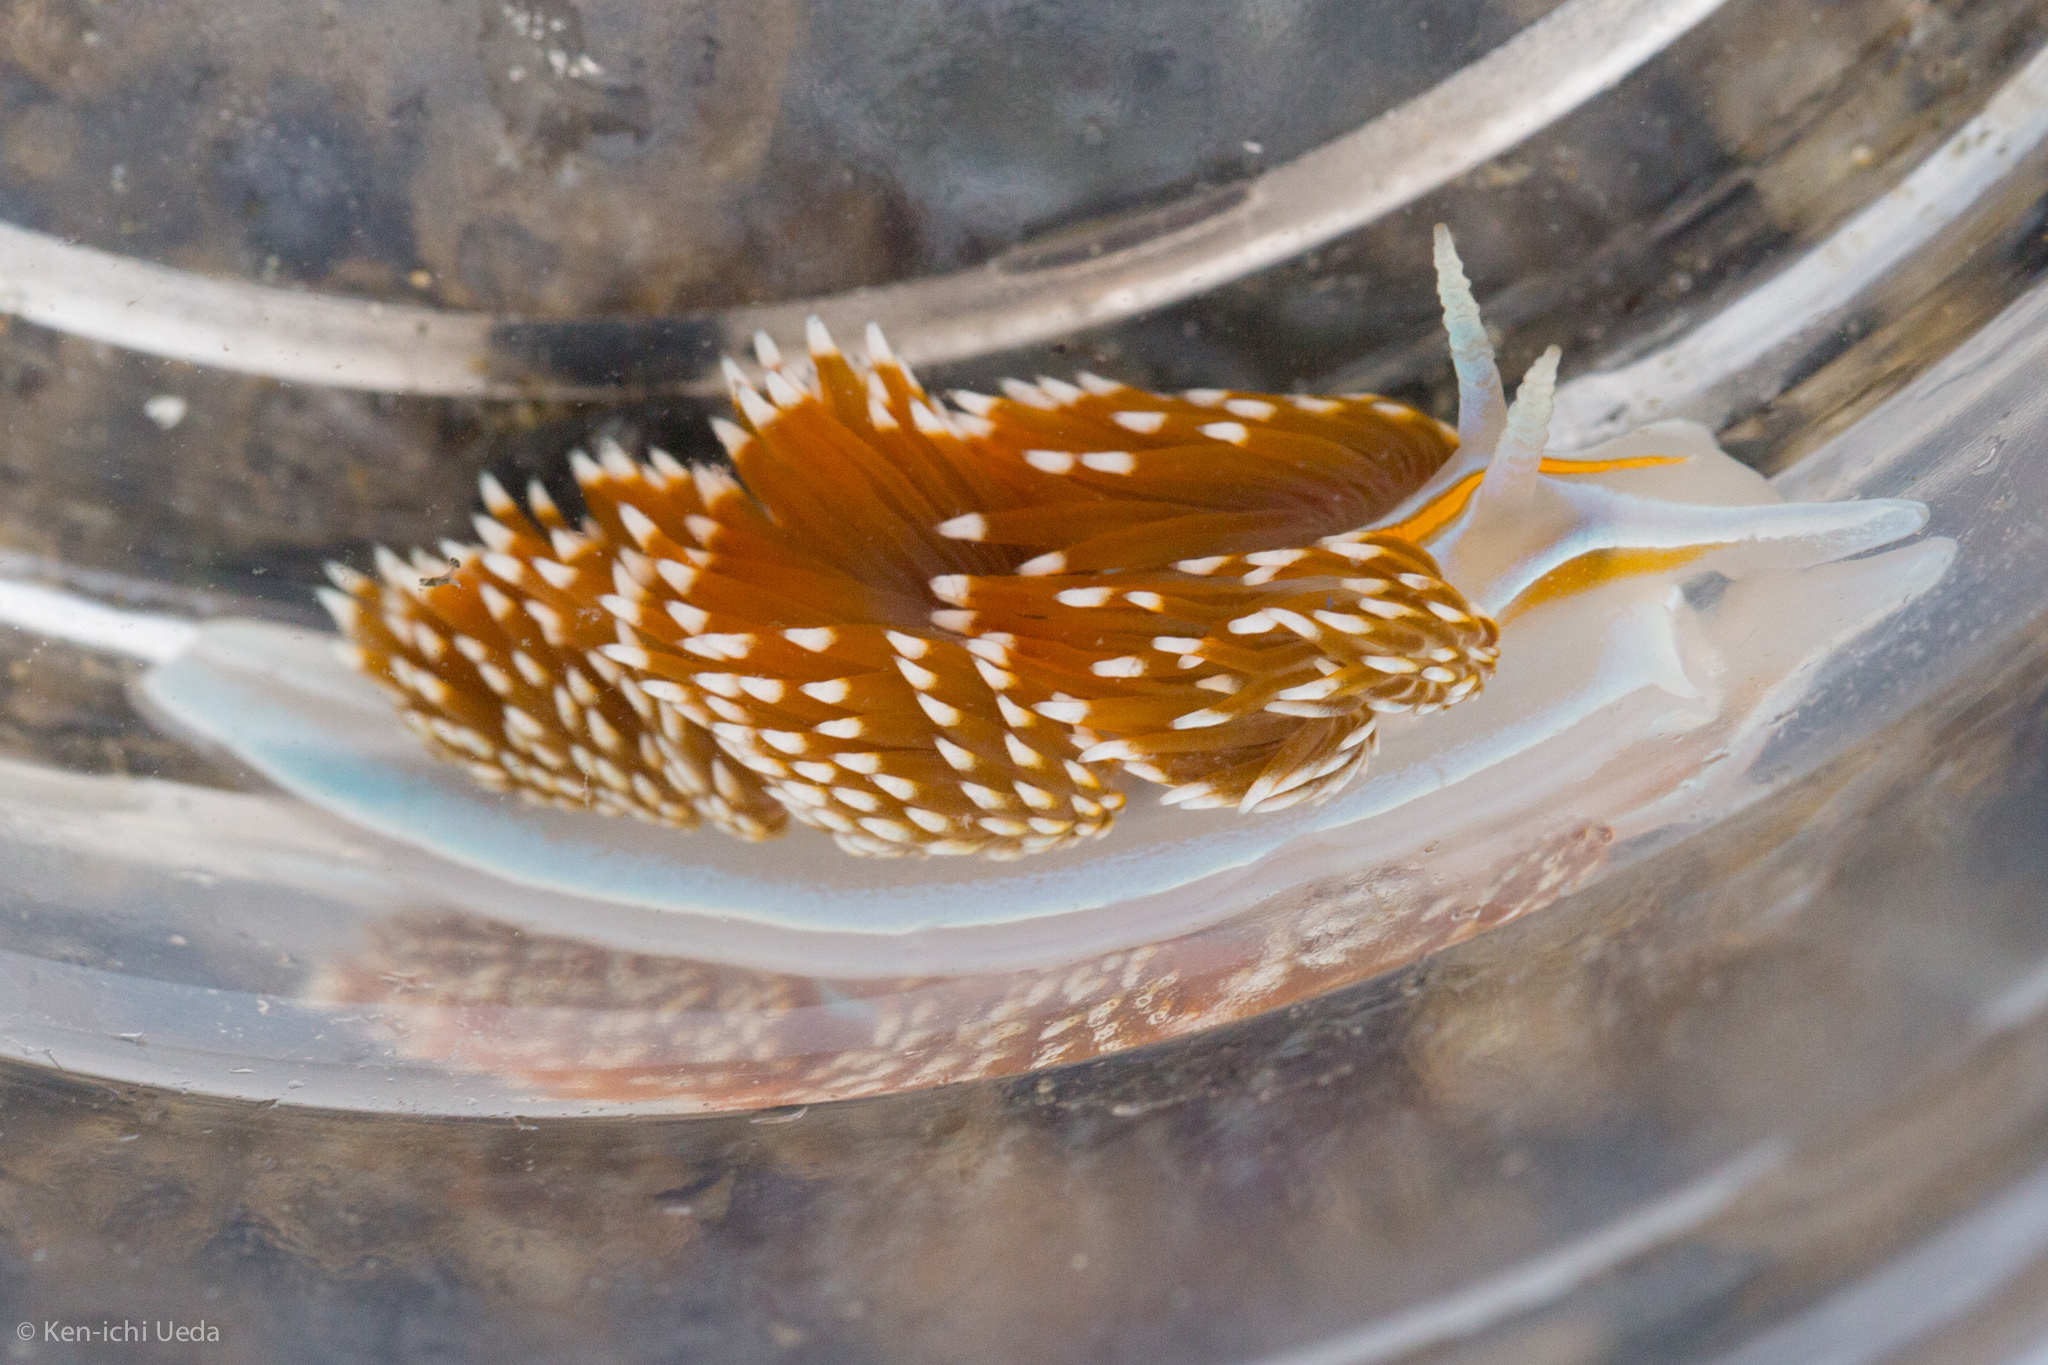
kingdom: Animalia
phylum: Mollusca
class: Gastropoda
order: Nudibranchia
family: Myrrhinidae
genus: Hermissenda
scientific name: Hermissenda opalescens
